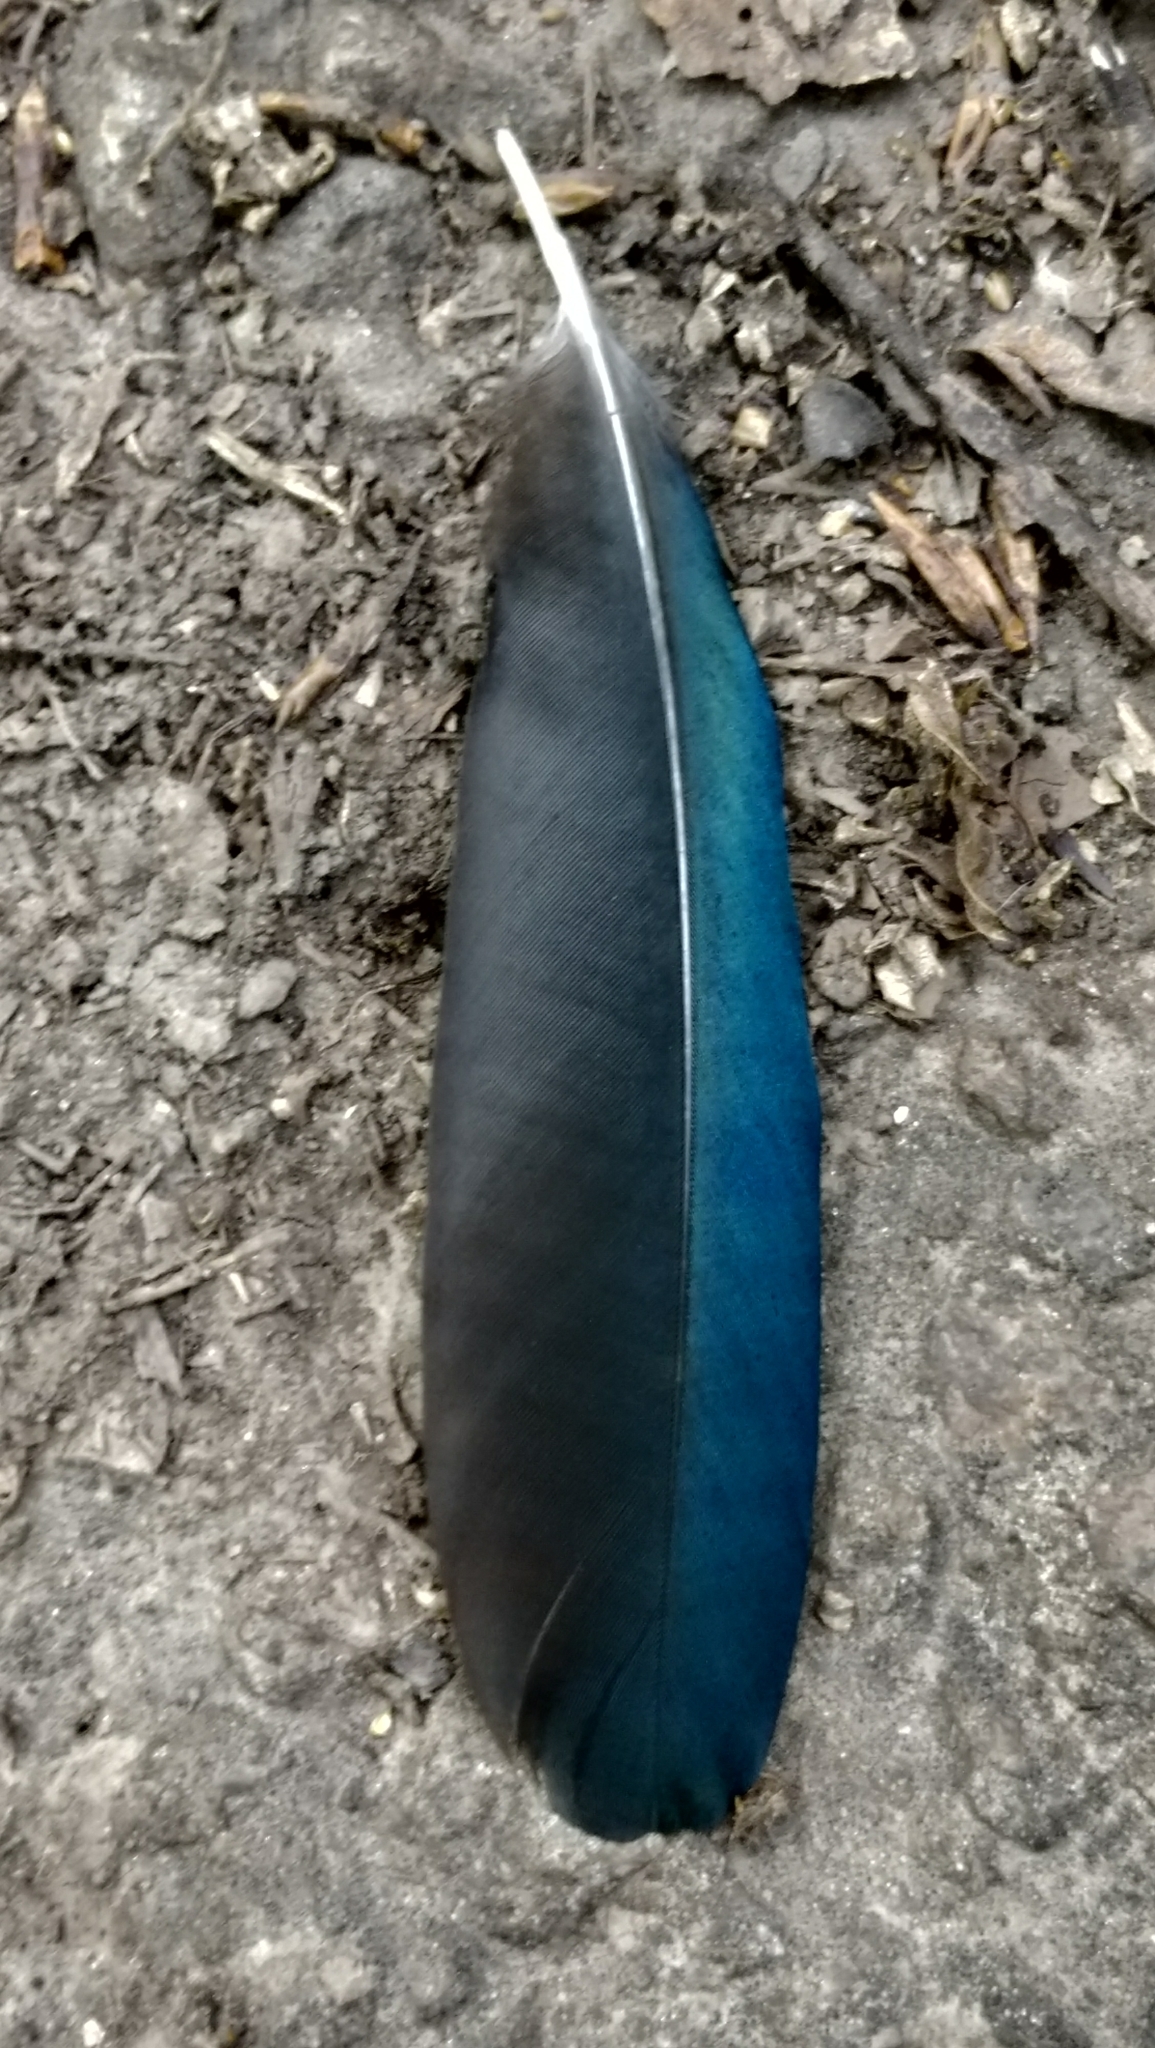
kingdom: Animalia
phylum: Chordata
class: Aves
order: Passeriformes
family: Corvidae
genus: Pica
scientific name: Pica pica
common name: Eurasian magpie
